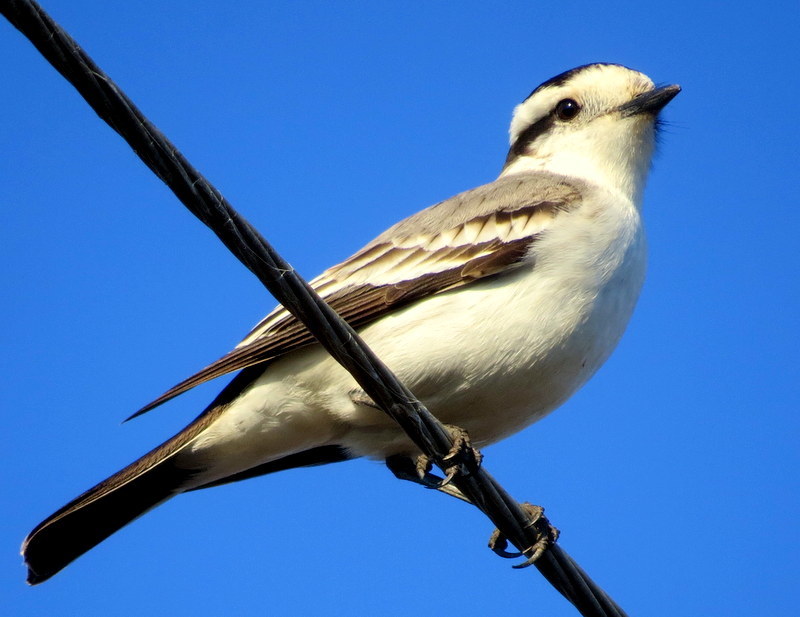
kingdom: Animalia
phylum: Chordata
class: Aves
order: Passeriformes
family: Tyrannidae
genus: Xolmis
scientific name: Xolmis coronatus
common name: Black-crowned monjita
